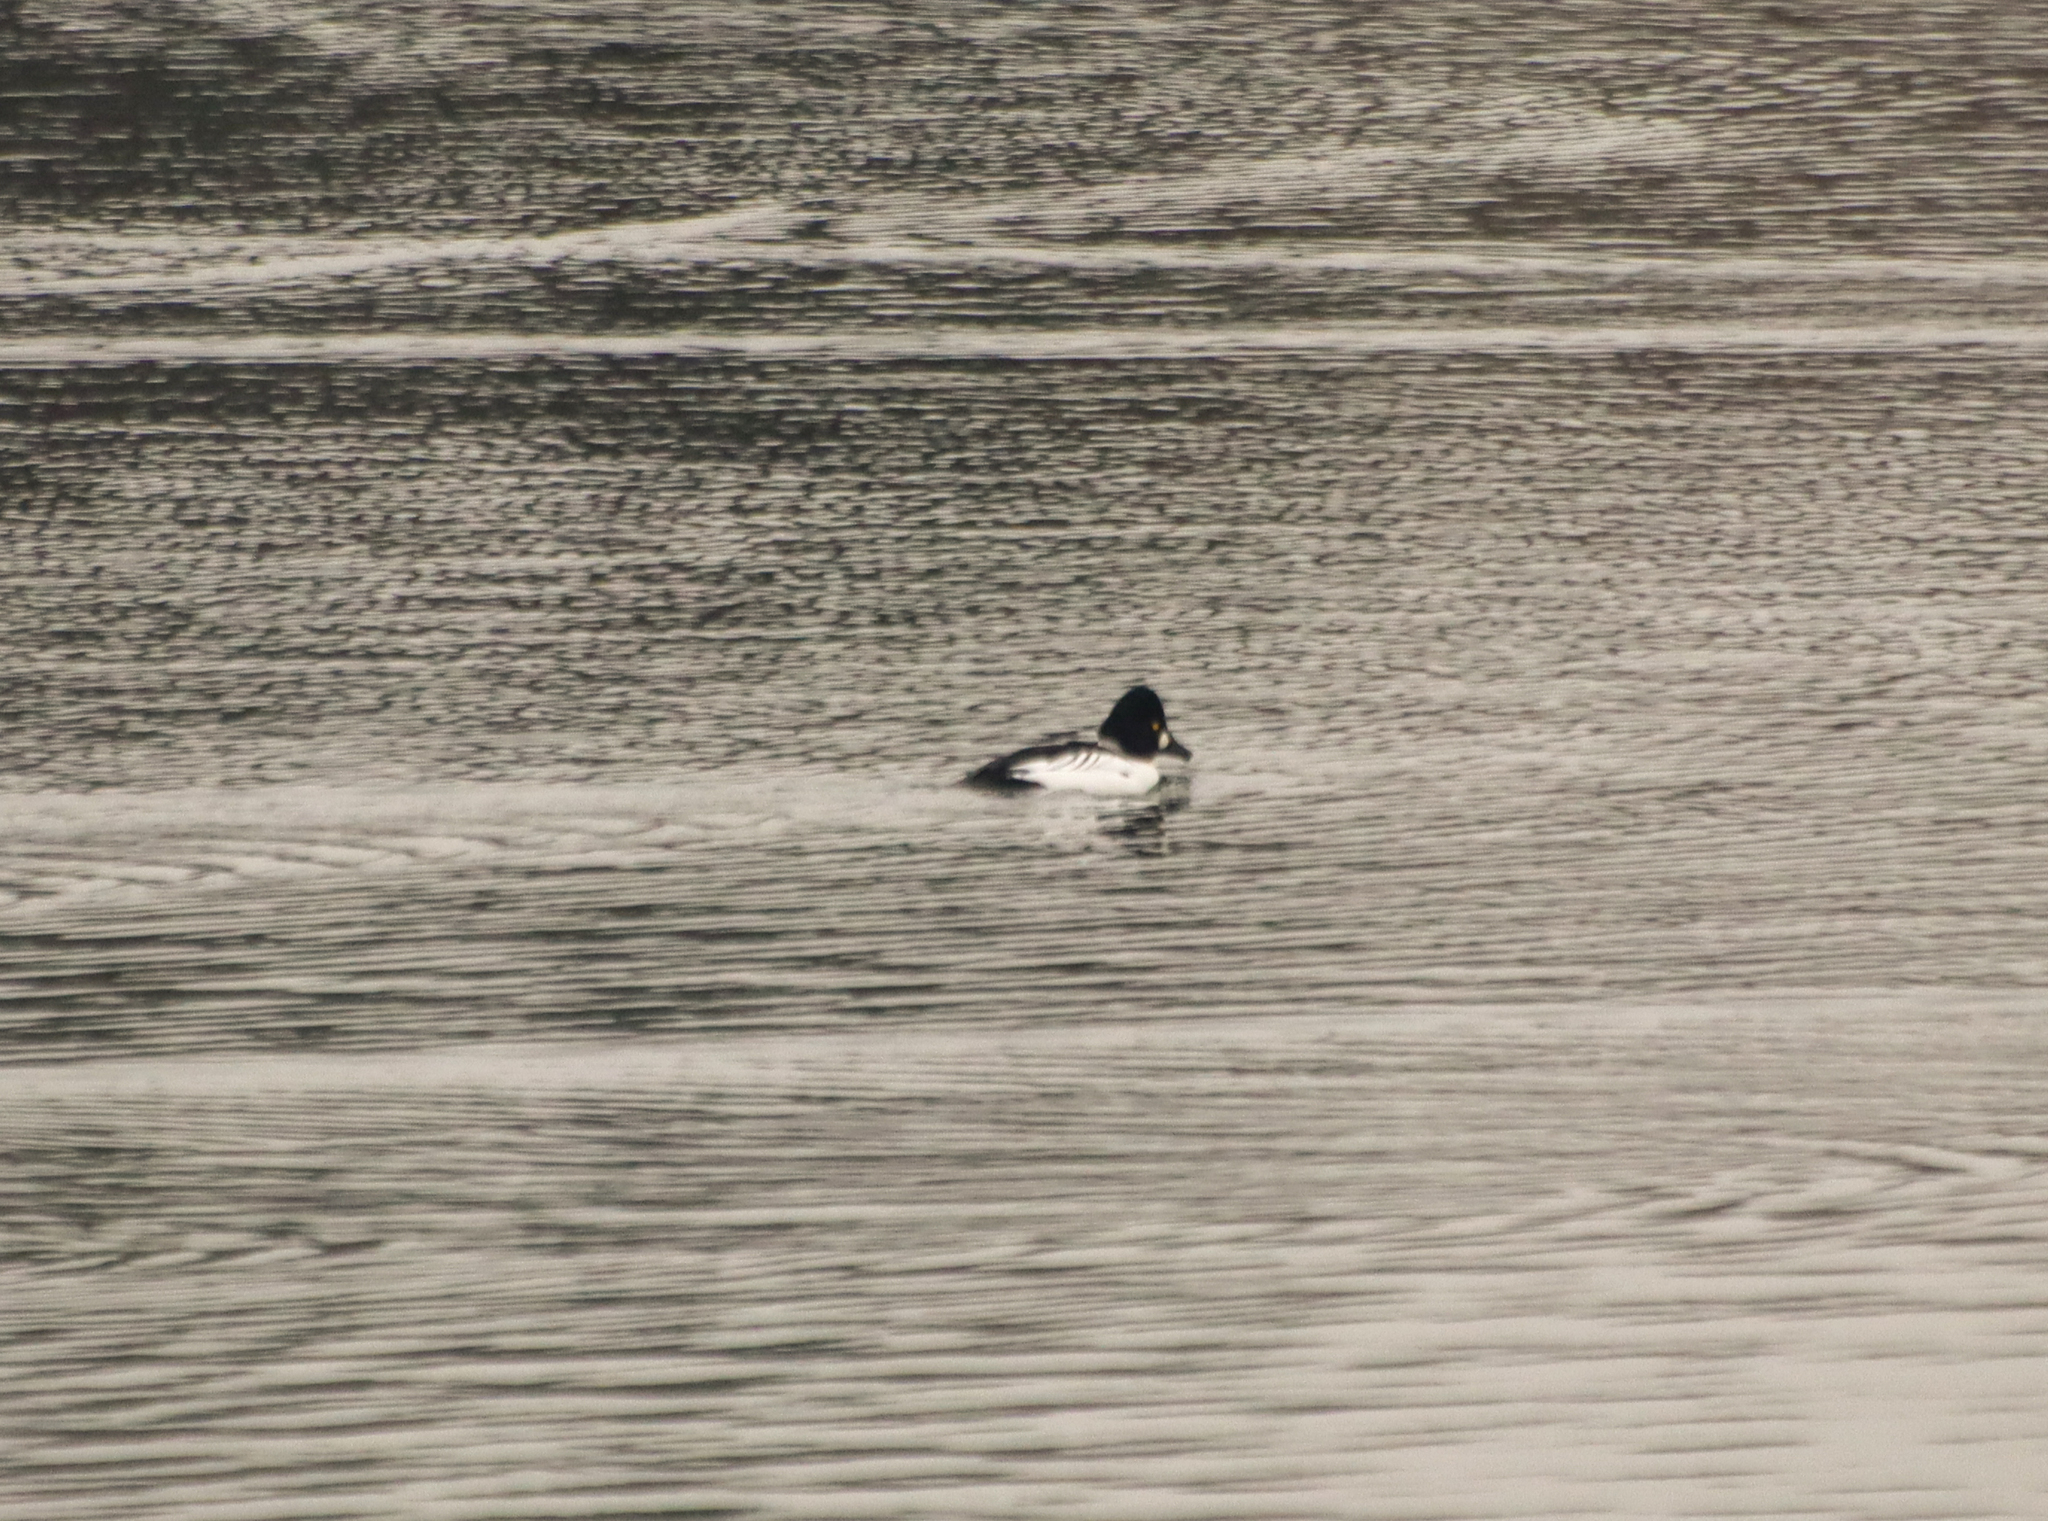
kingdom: Animalia
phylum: Chordata
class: Aves
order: Anseriformes
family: Anatidae
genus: Bucephala
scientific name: Bucephala clangula
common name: Common goldeneye
